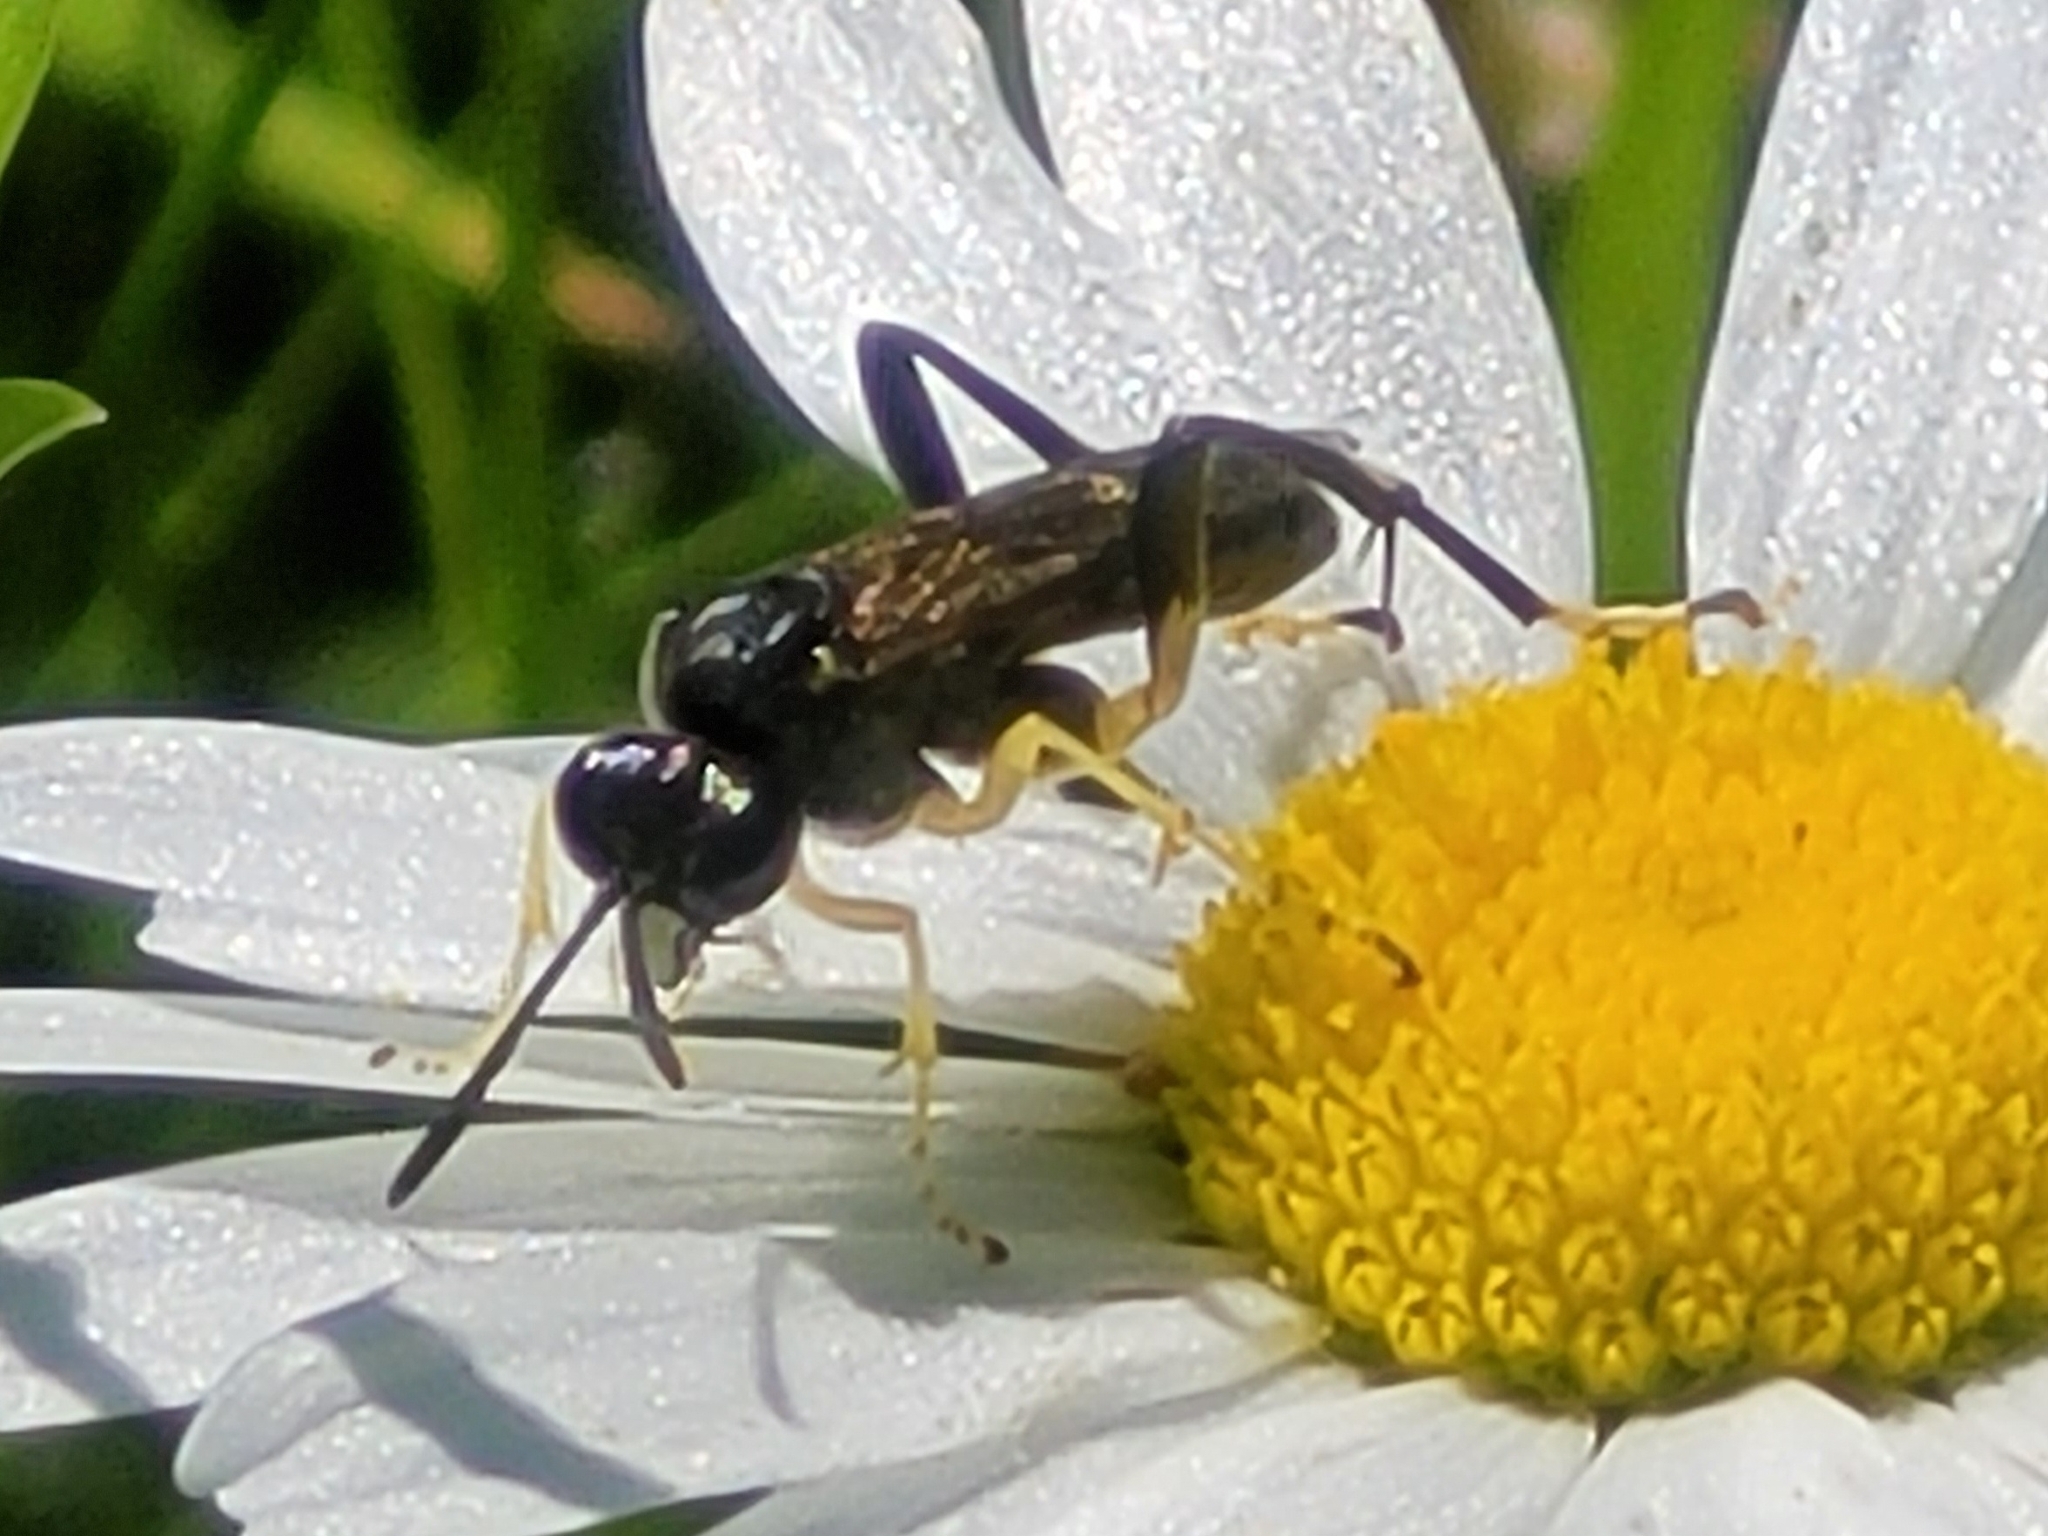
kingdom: Animalia
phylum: Arthropoda
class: Insecta
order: Hymenoptera
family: Tenthredinidae
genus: Macrophya
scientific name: Macrophya montana
